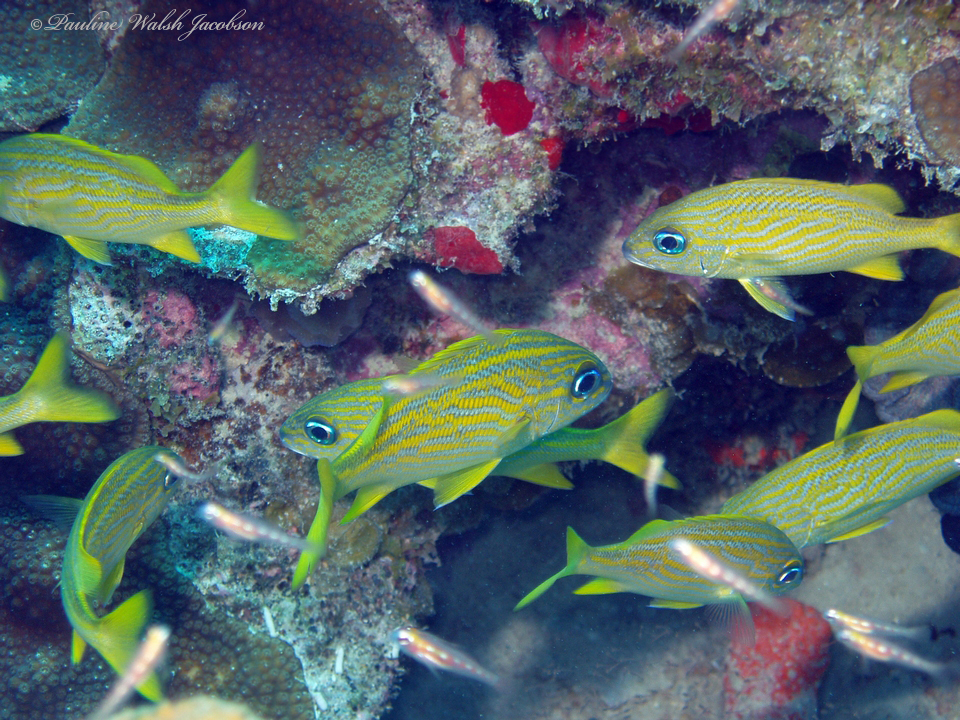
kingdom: Animalia
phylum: Chordata
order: Perciformes
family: Haemulidae
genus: Haemulon
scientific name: Haemulon flavolineatum
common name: French grunt
